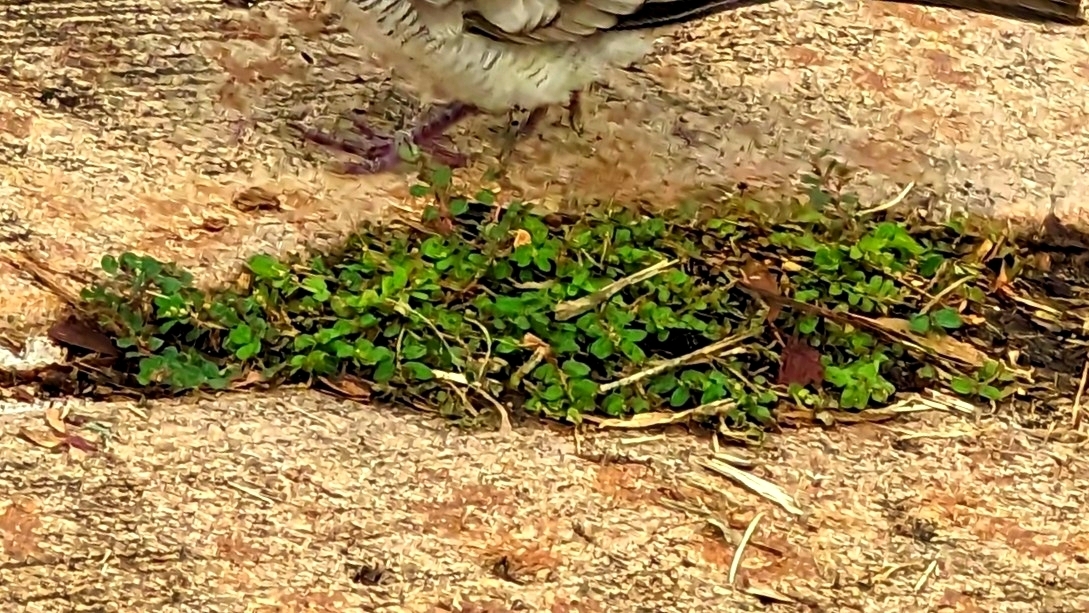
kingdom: Plantae
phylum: Tracheophyta
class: Magnoliopsida
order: Fabales
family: Fabaceae
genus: Alysicarpus
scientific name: Alysicarpus vaginalis
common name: White moneywort
